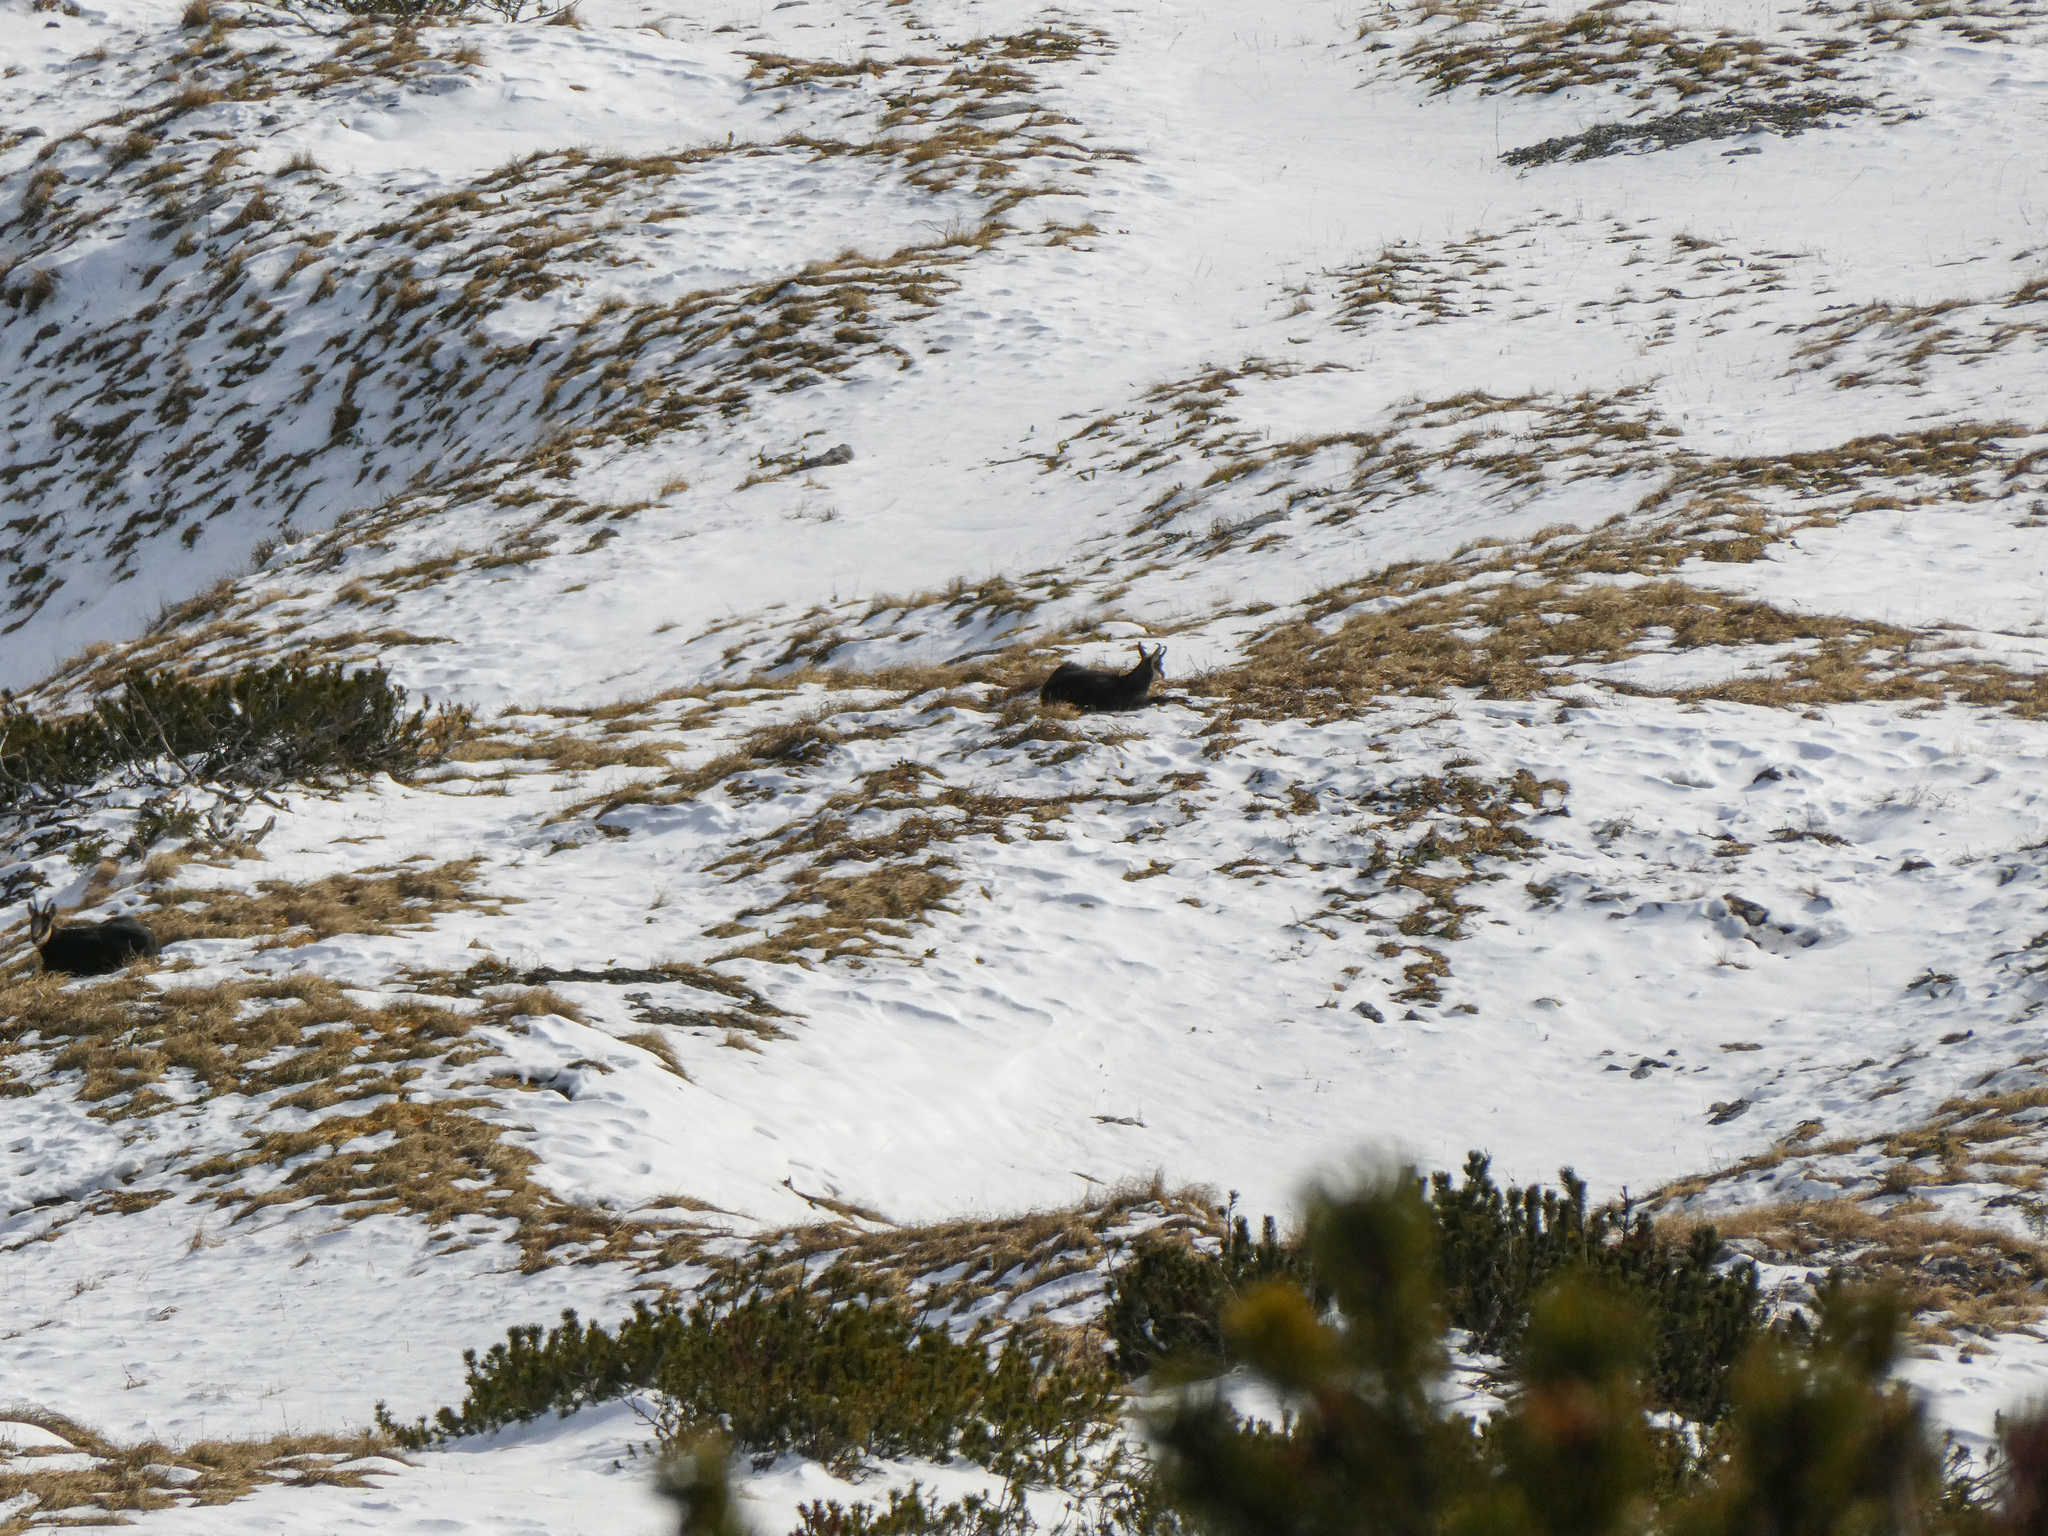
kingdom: Animalia
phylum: Chordata
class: Mammalia
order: Artiodactyla
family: Bovidae
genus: Rupicapra
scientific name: Rupicapra rupicapra
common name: Chamois
